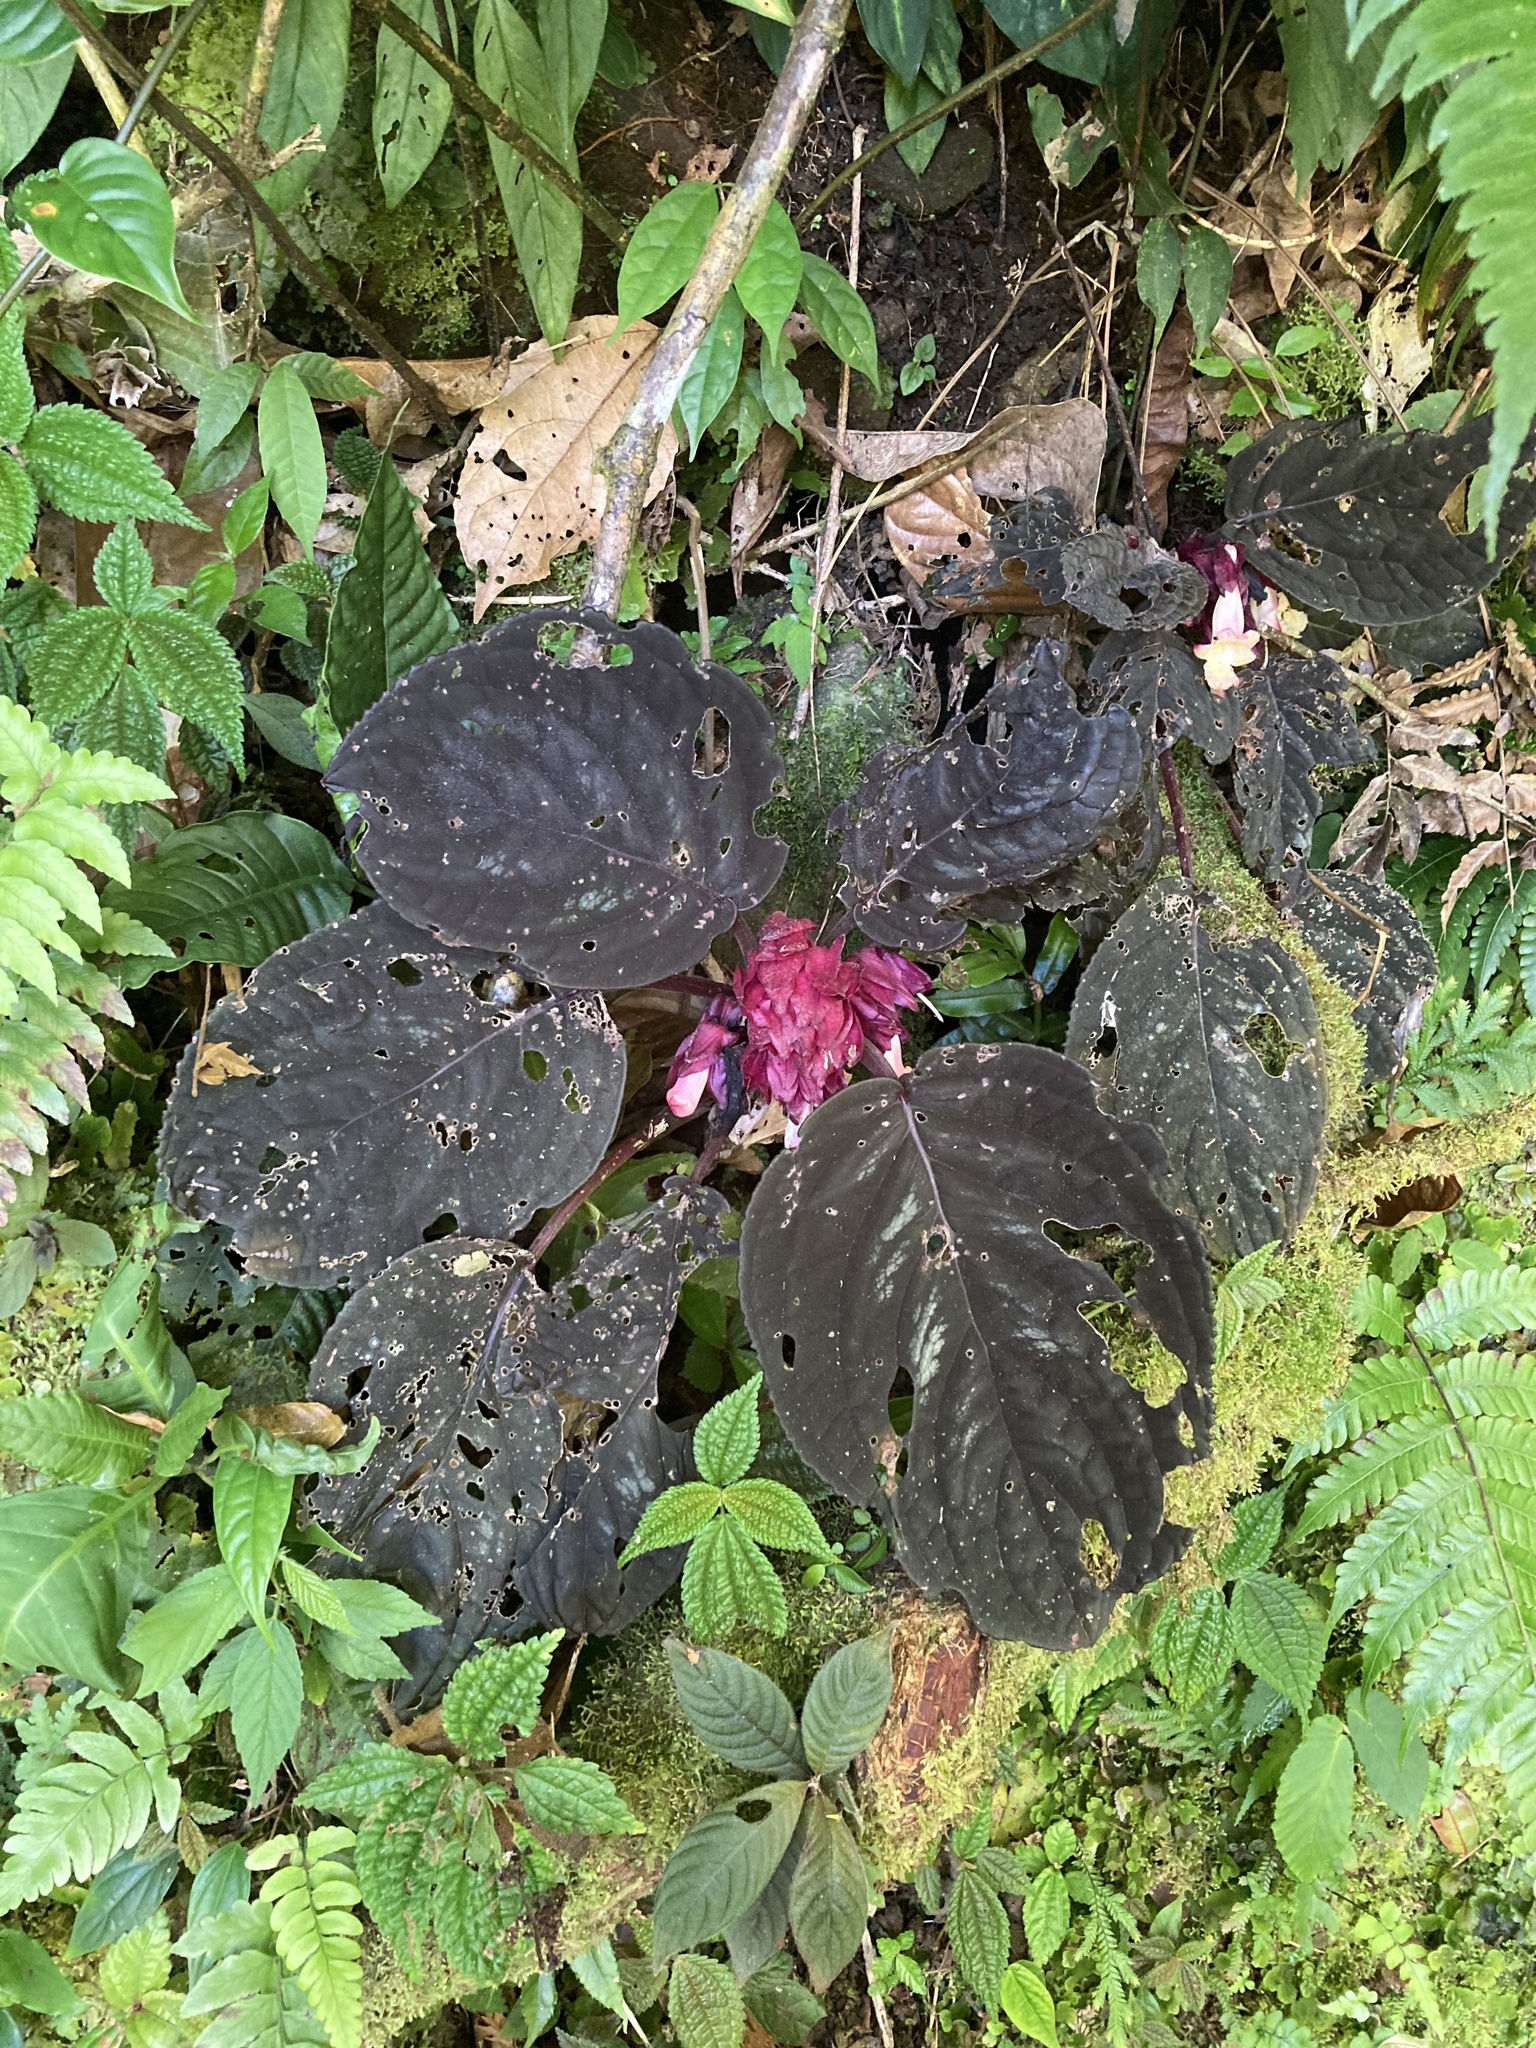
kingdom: Plantae
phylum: Tracheophyta
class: Magnoliopsida
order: Lamiales
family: Gesneriaceae
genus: Drymonia
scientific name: Drymonia turrialvae
